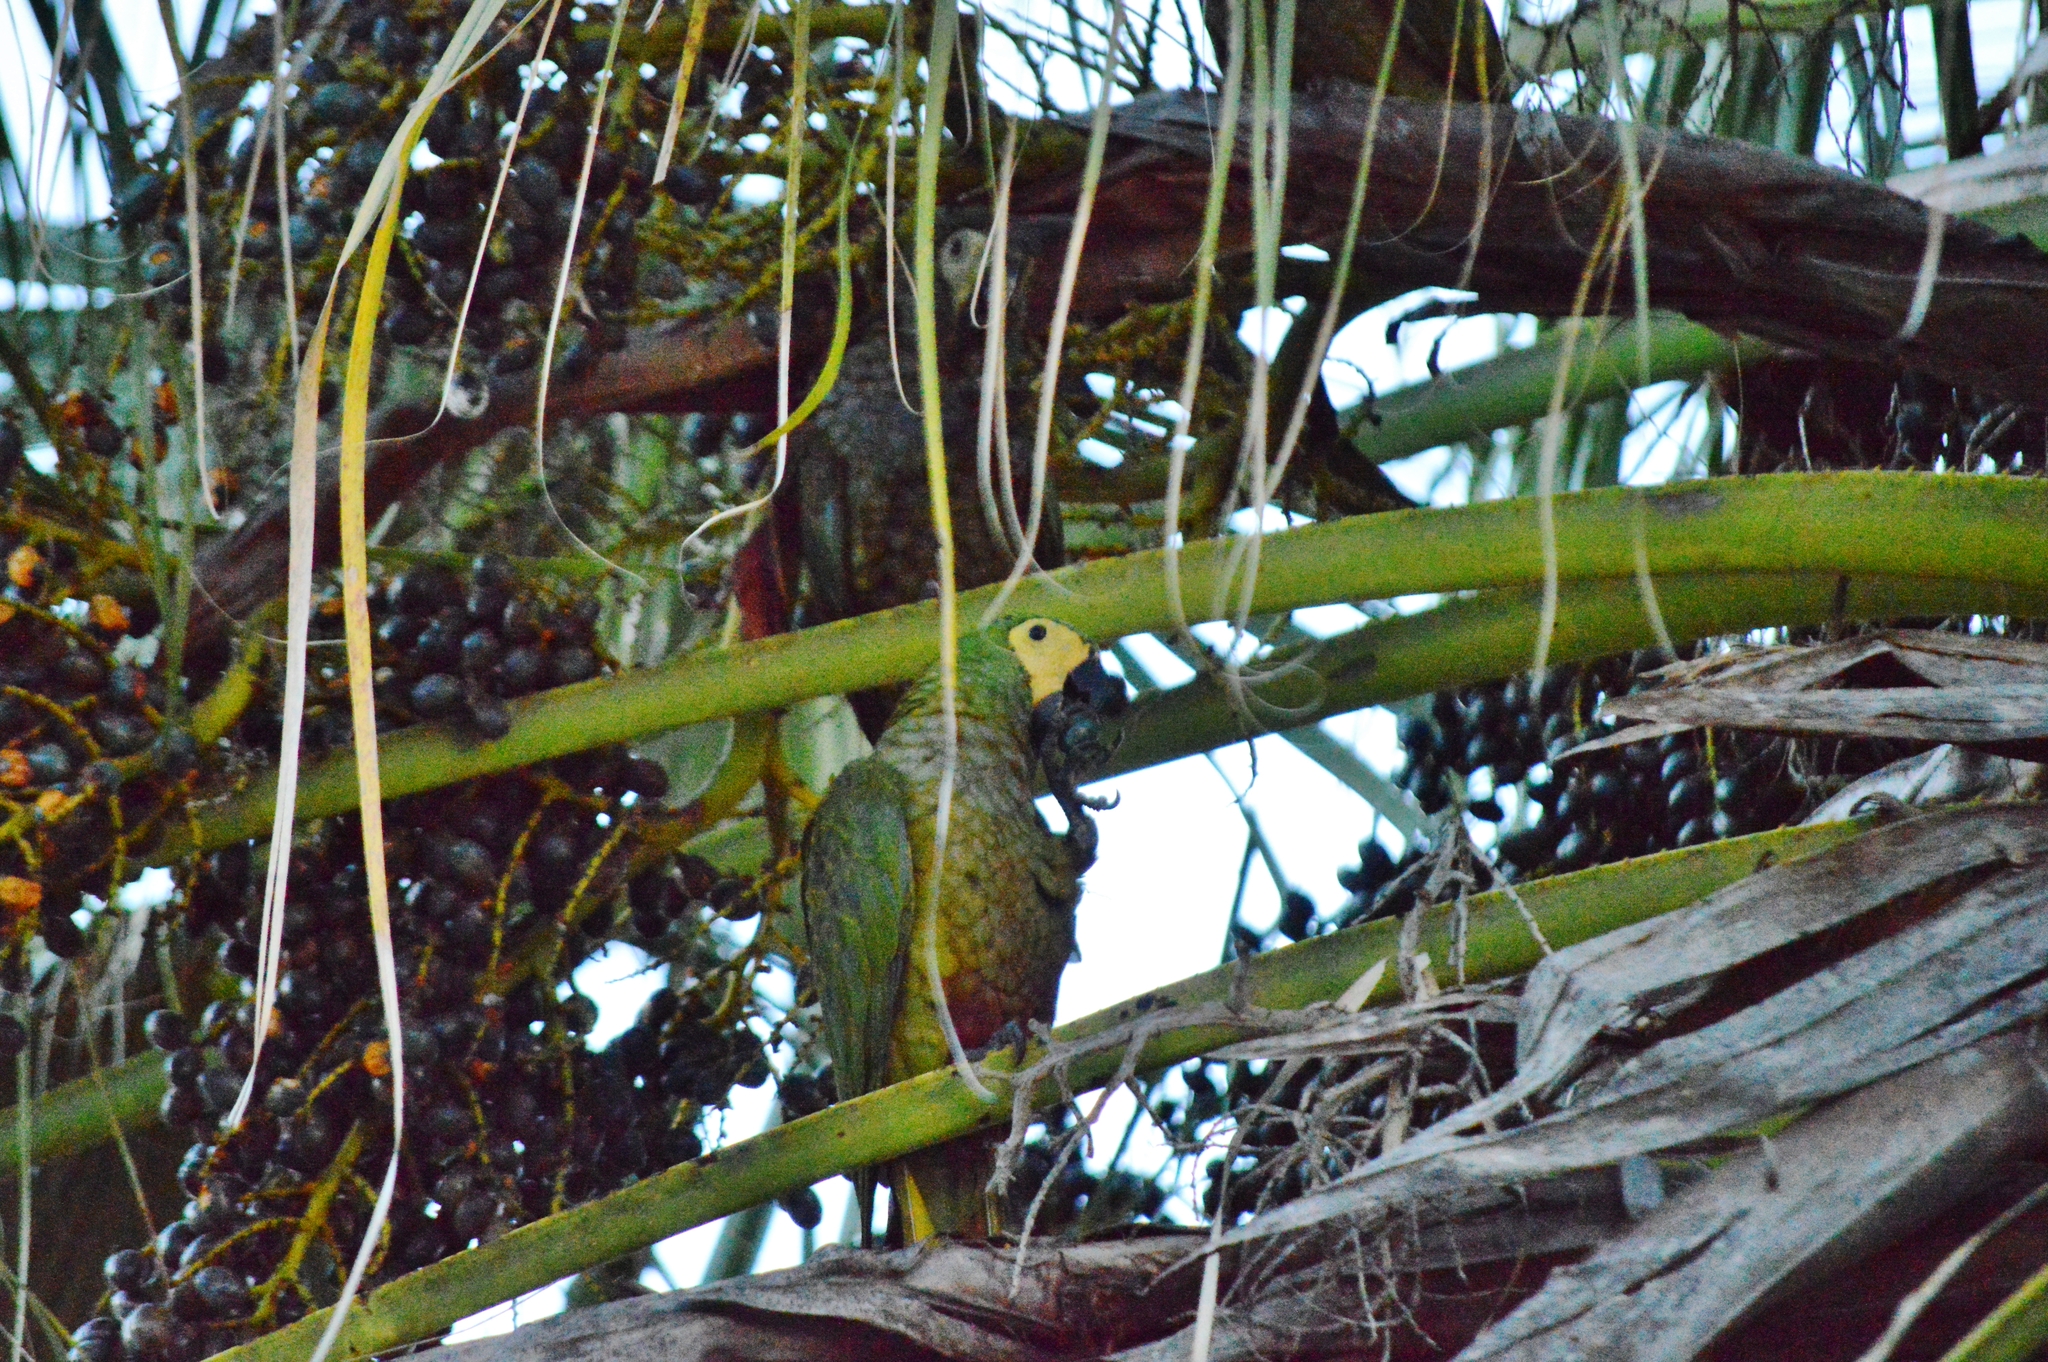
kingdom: Animalia
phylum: Chordata
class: Aves
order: Psittaciformes
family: Psittacidae
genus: Orthopsittaca
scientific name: Orthopsittaca manilata
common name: Red-bellied macaw
